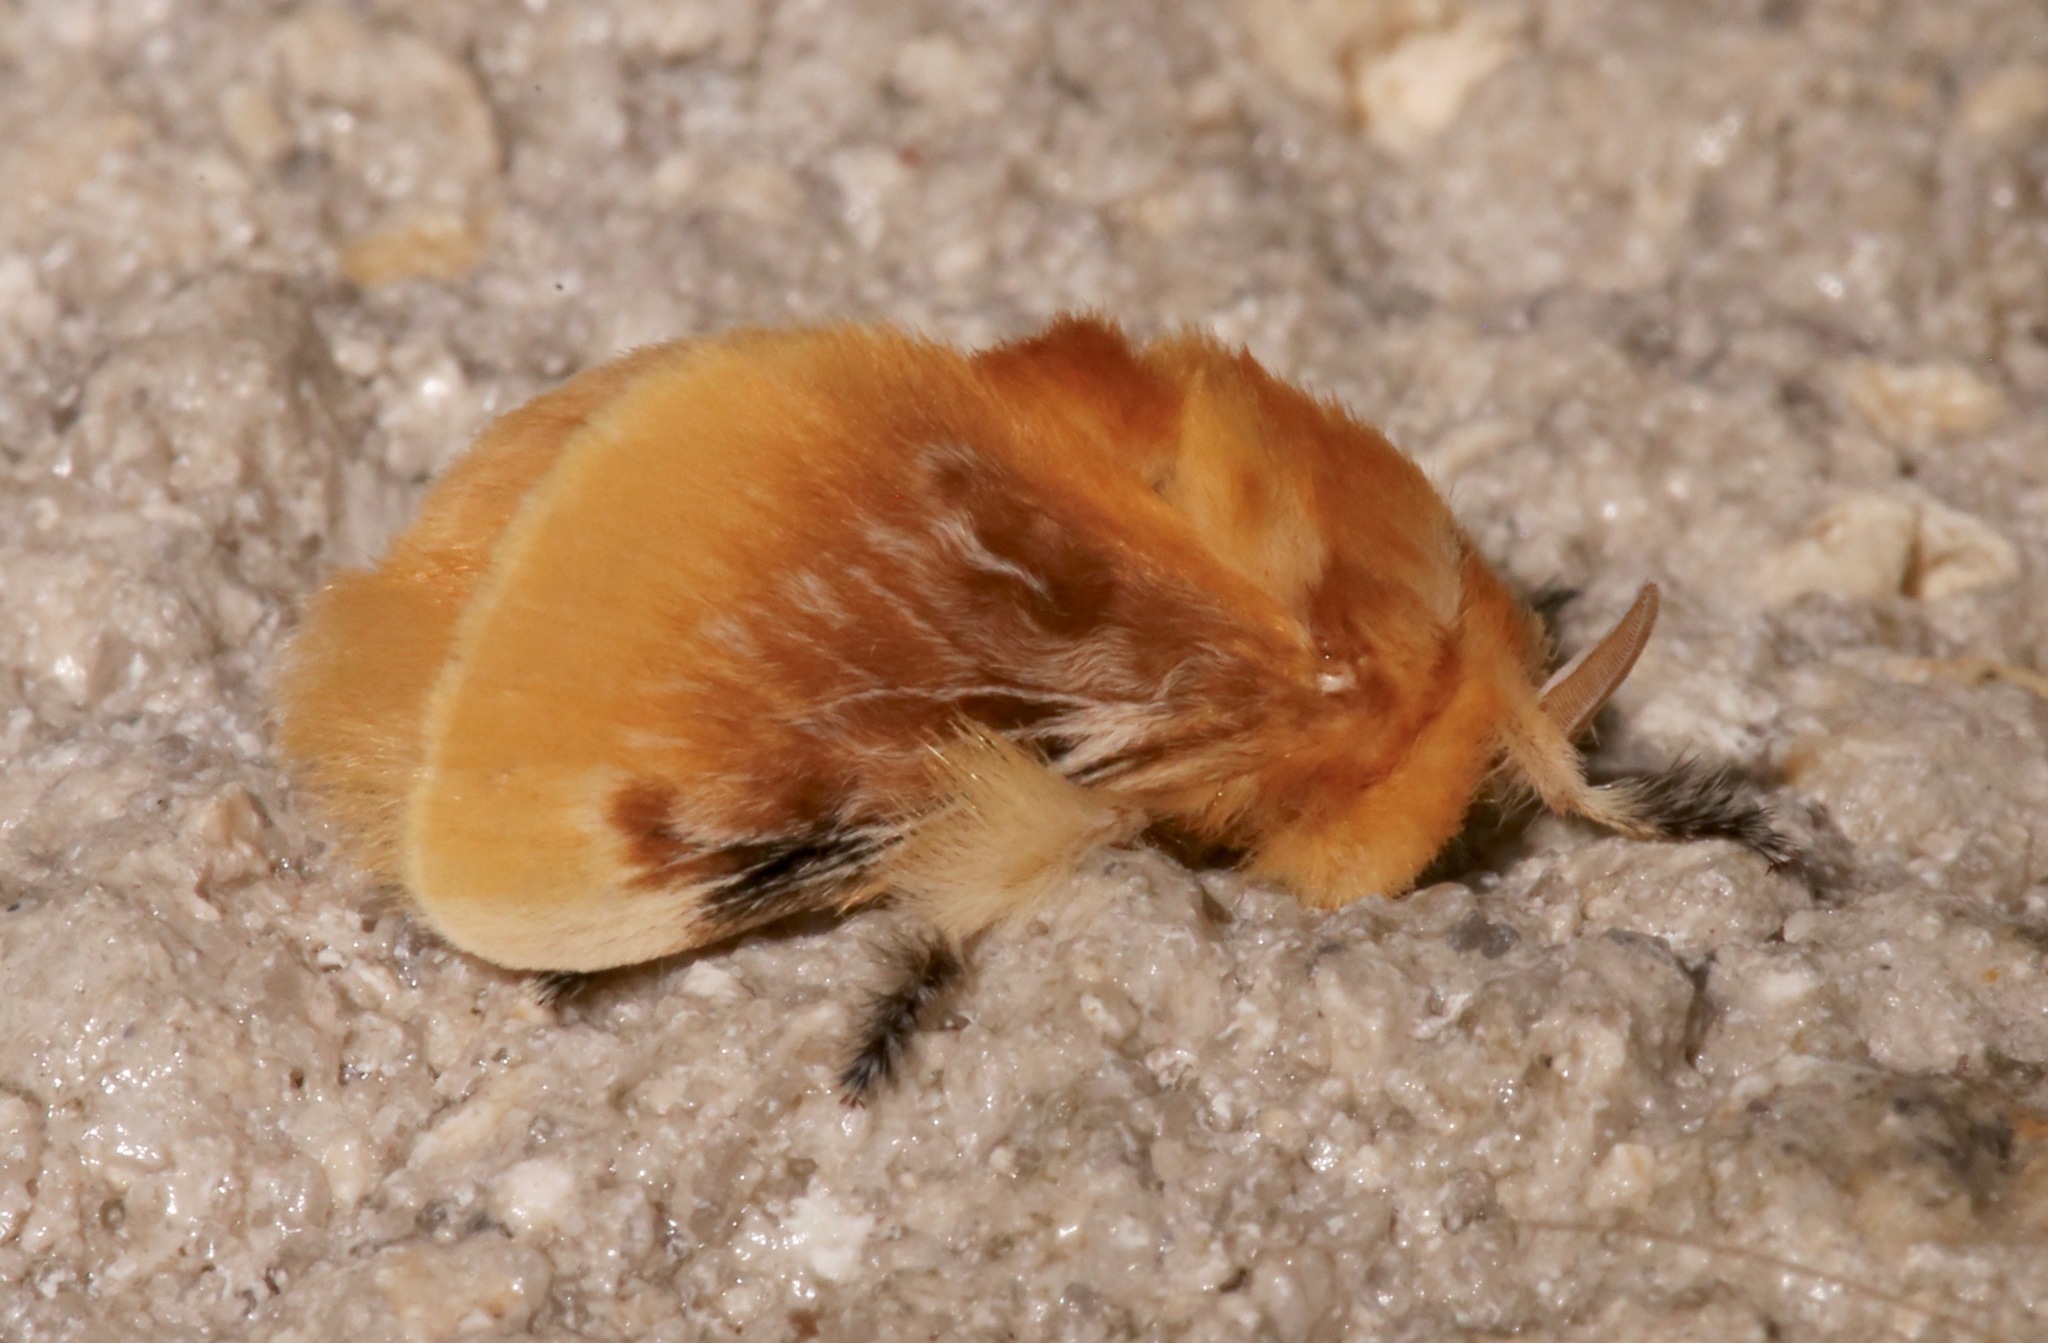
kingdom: Animalia
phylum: Arthropoda
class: Insecta
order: Lepidoptera
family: Megalopygidae
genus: Megalopyge
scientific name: Megalopyge opercularis
